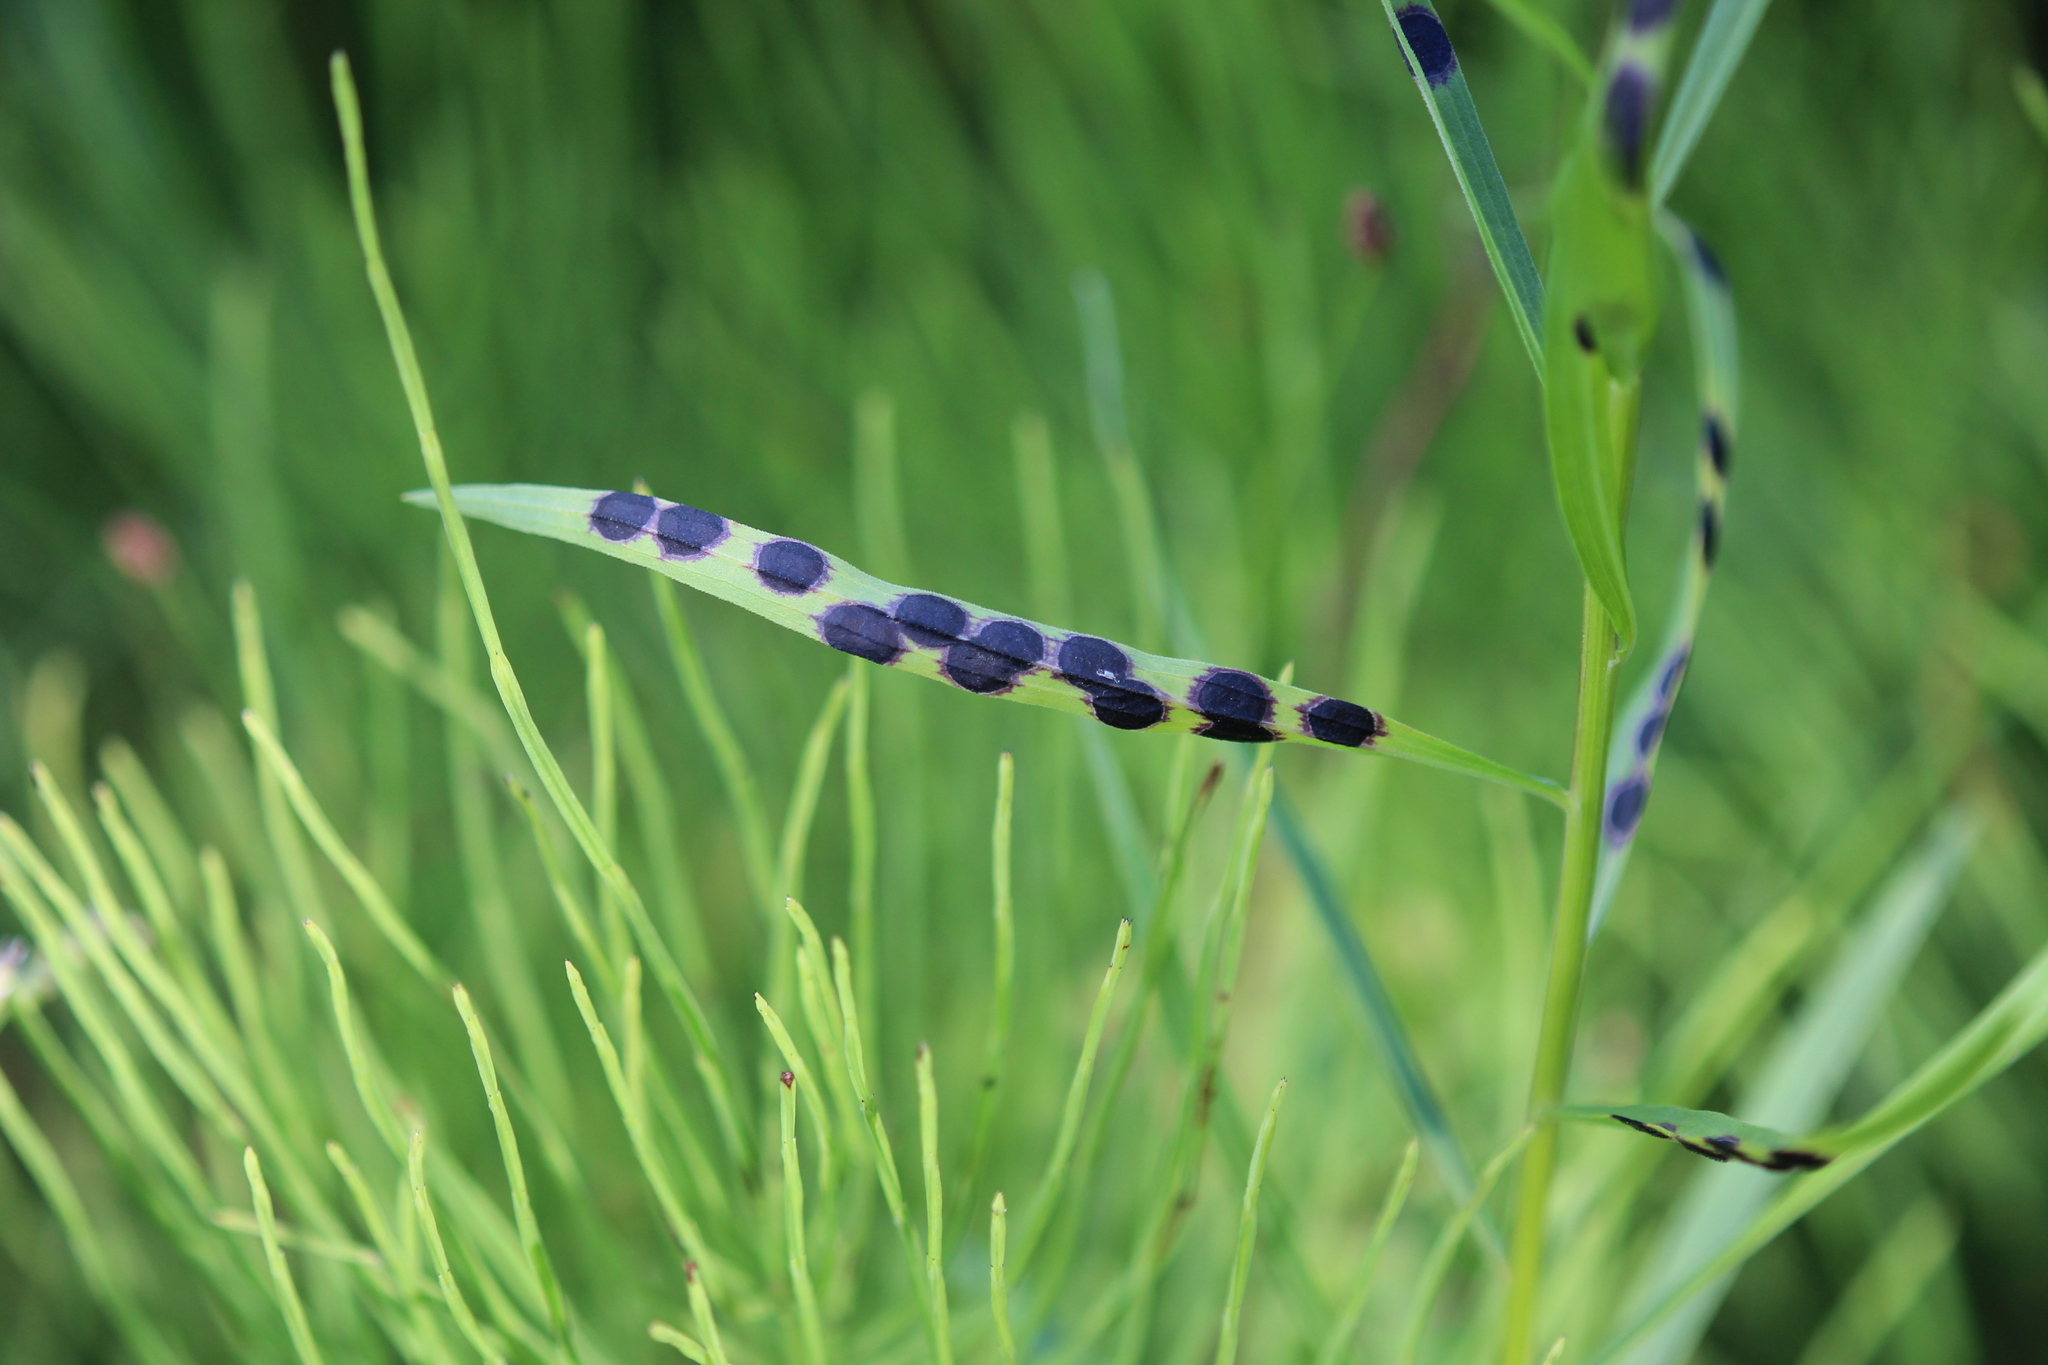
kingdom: Animalia
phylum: Arthropoda
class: Insecta
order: Diptera
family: Cecidomyiidae
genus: Asteromyia
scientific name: Asteromyia euthamiae
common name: Euthamia leaf gall midge
